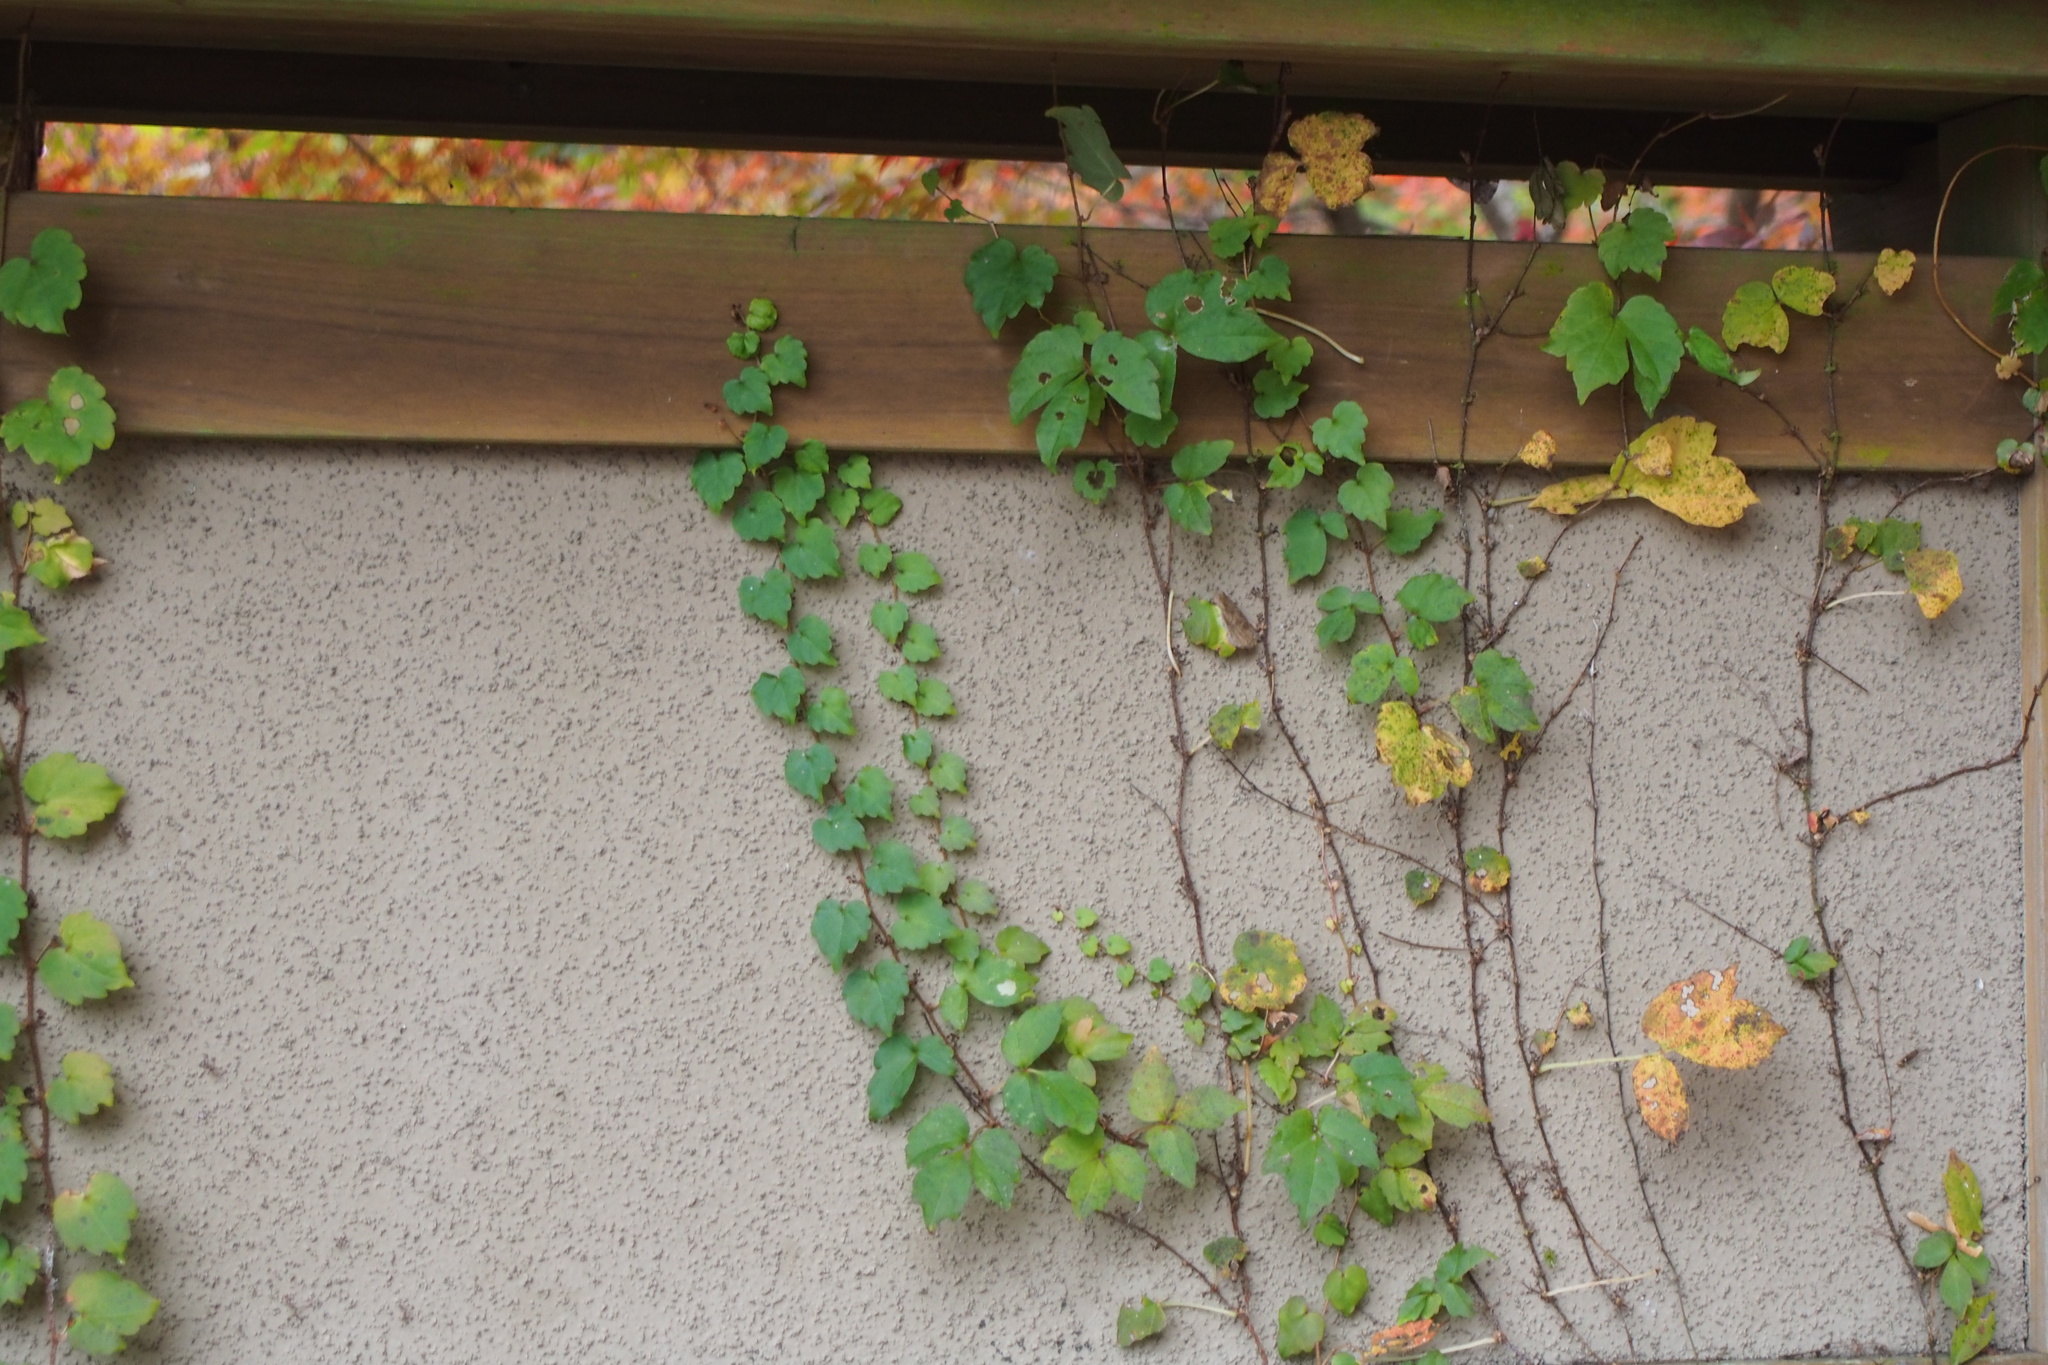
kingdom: Plantae
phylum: Tracheophyta
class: Magnoliopsida
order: Vitales
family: Vitaceae
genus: Parthenocissus
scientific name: Parthenocissus tricuspidata
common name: Boston ivy
